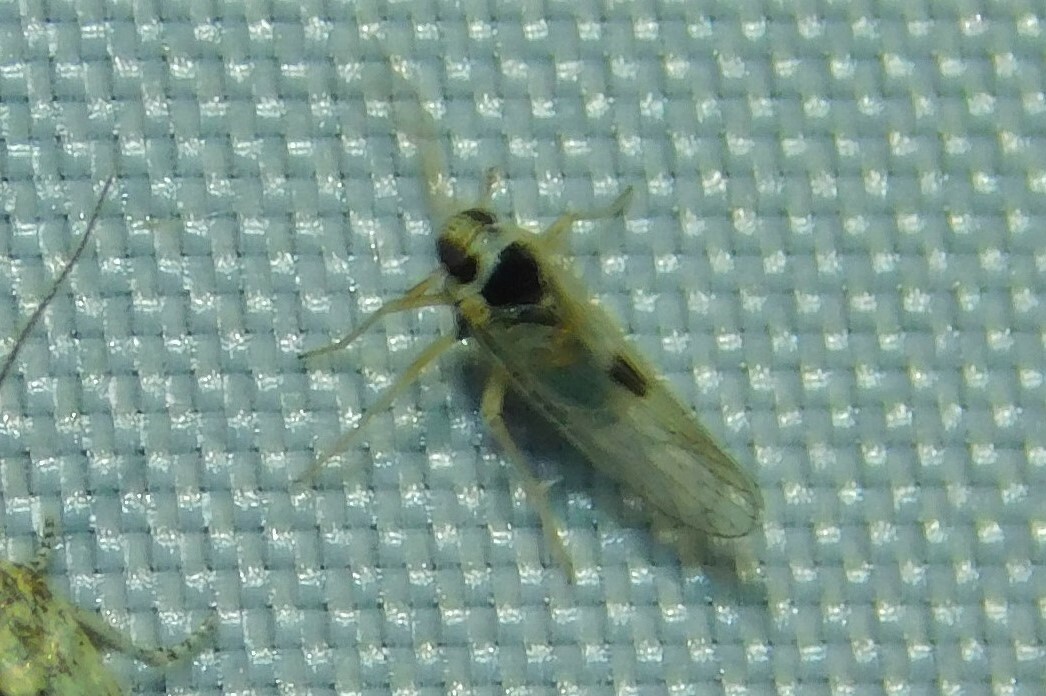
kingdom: Animalia
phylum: Arthropoda
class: Insecta
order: Hemiptera
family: Delphacidae
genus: Laodelphax
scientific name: Laodelphax striatellus
